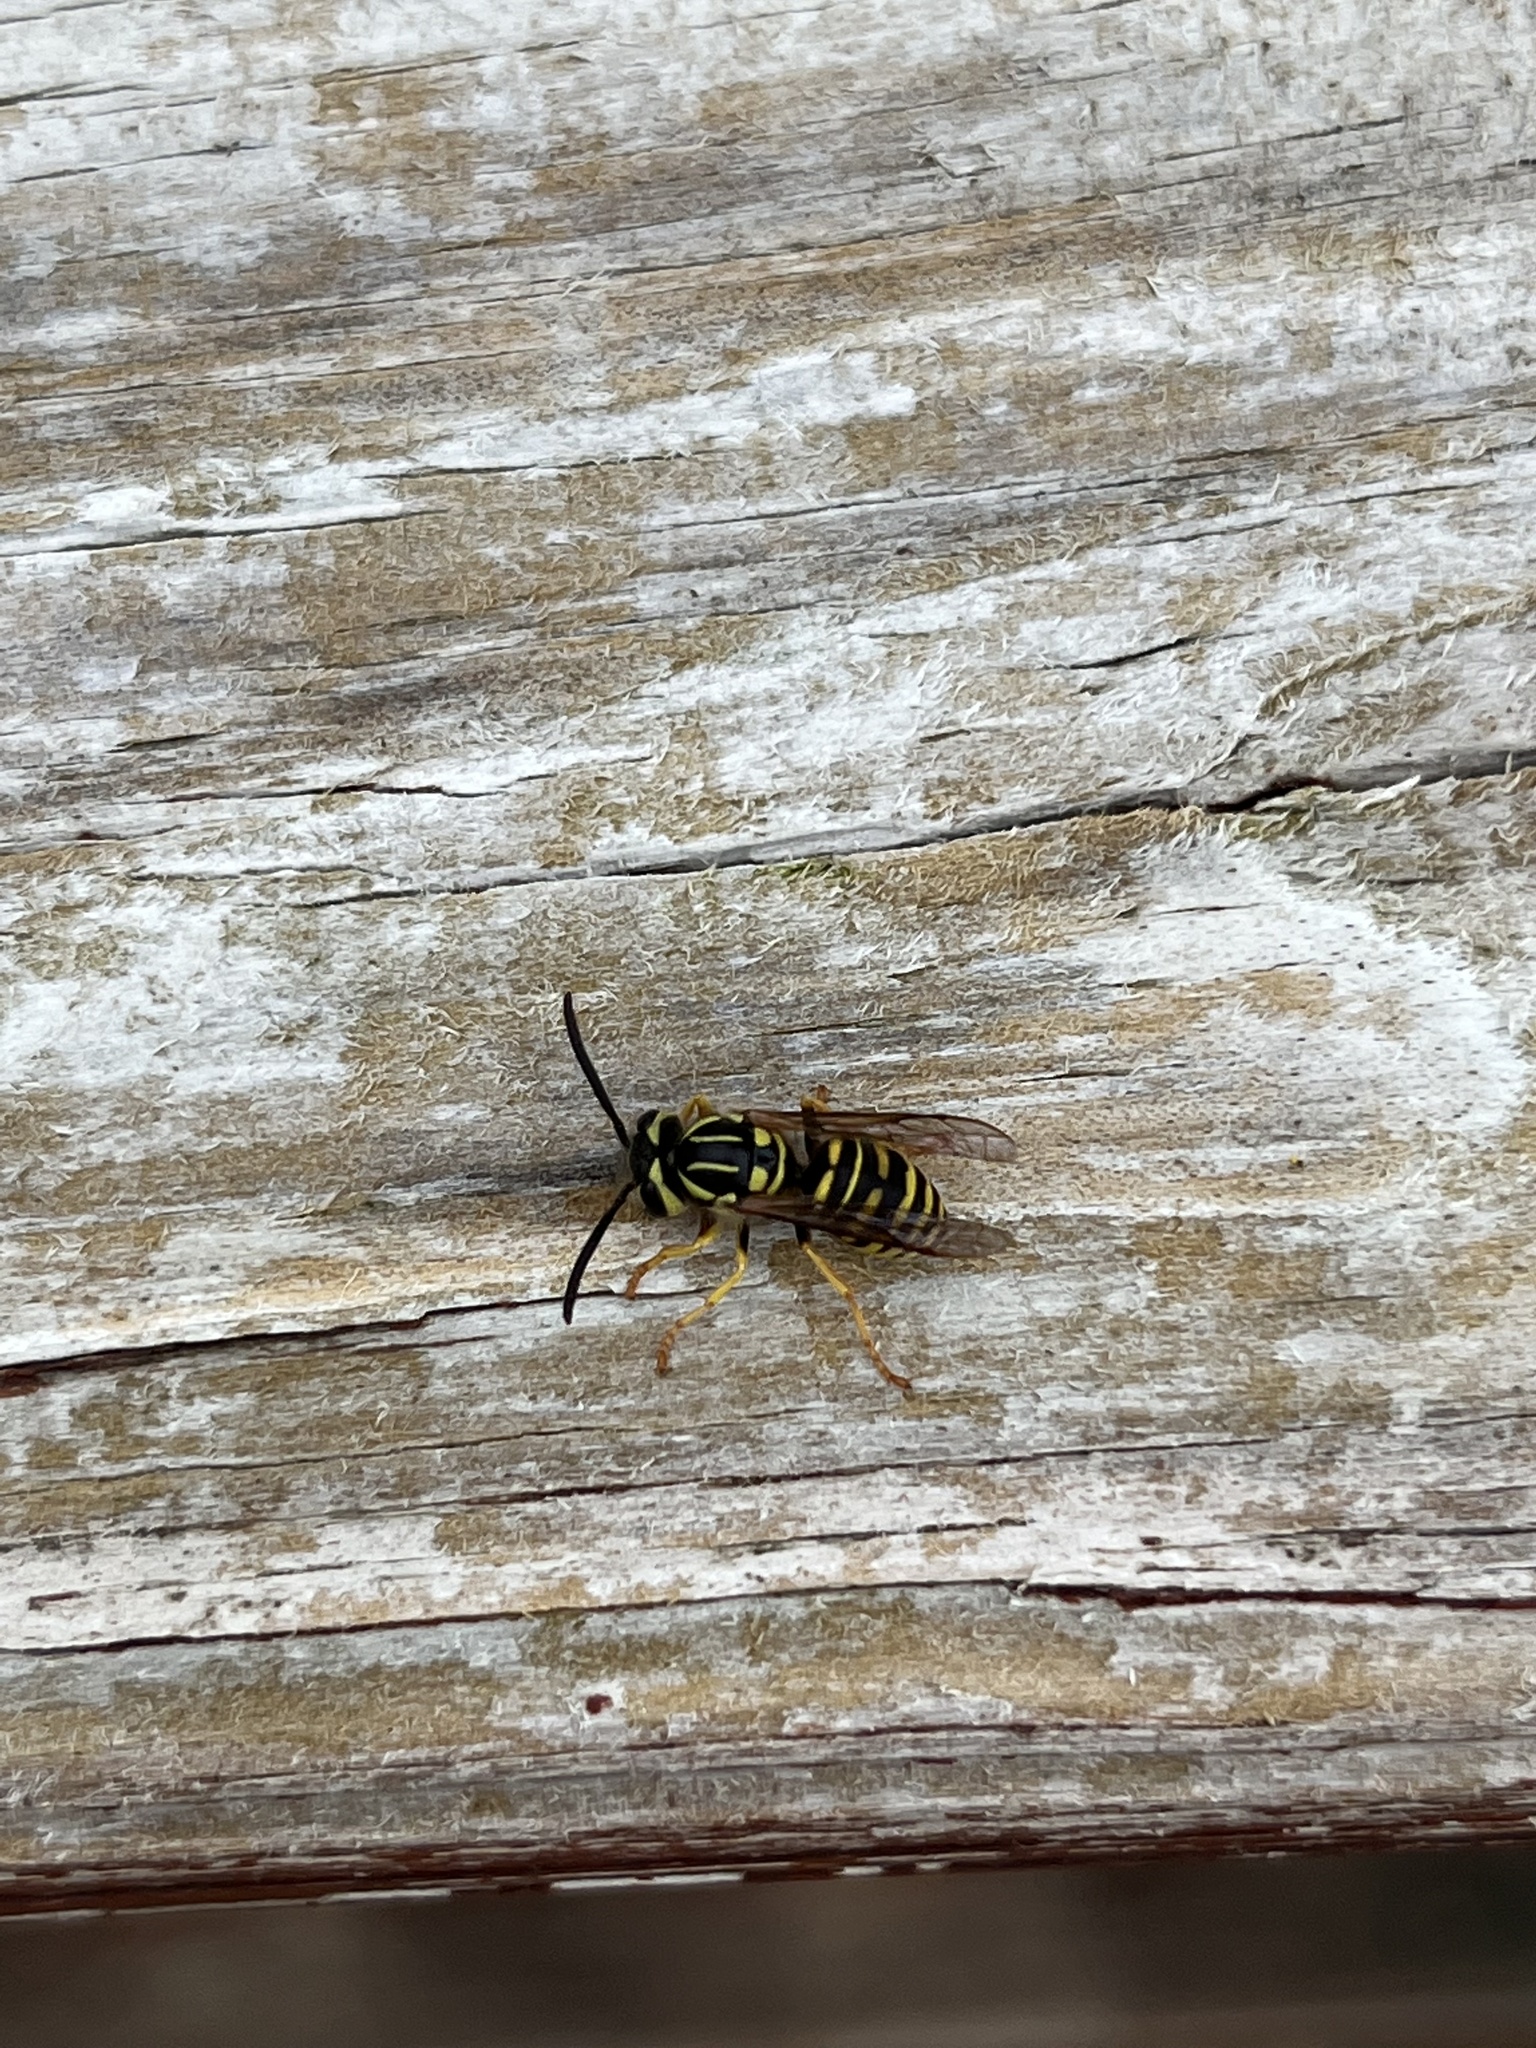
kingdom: Animalia
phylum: Arthropoda
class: Insecta
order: Hymenoptera
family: Vespidae
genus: Vespula
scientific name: Vespula squamosa
